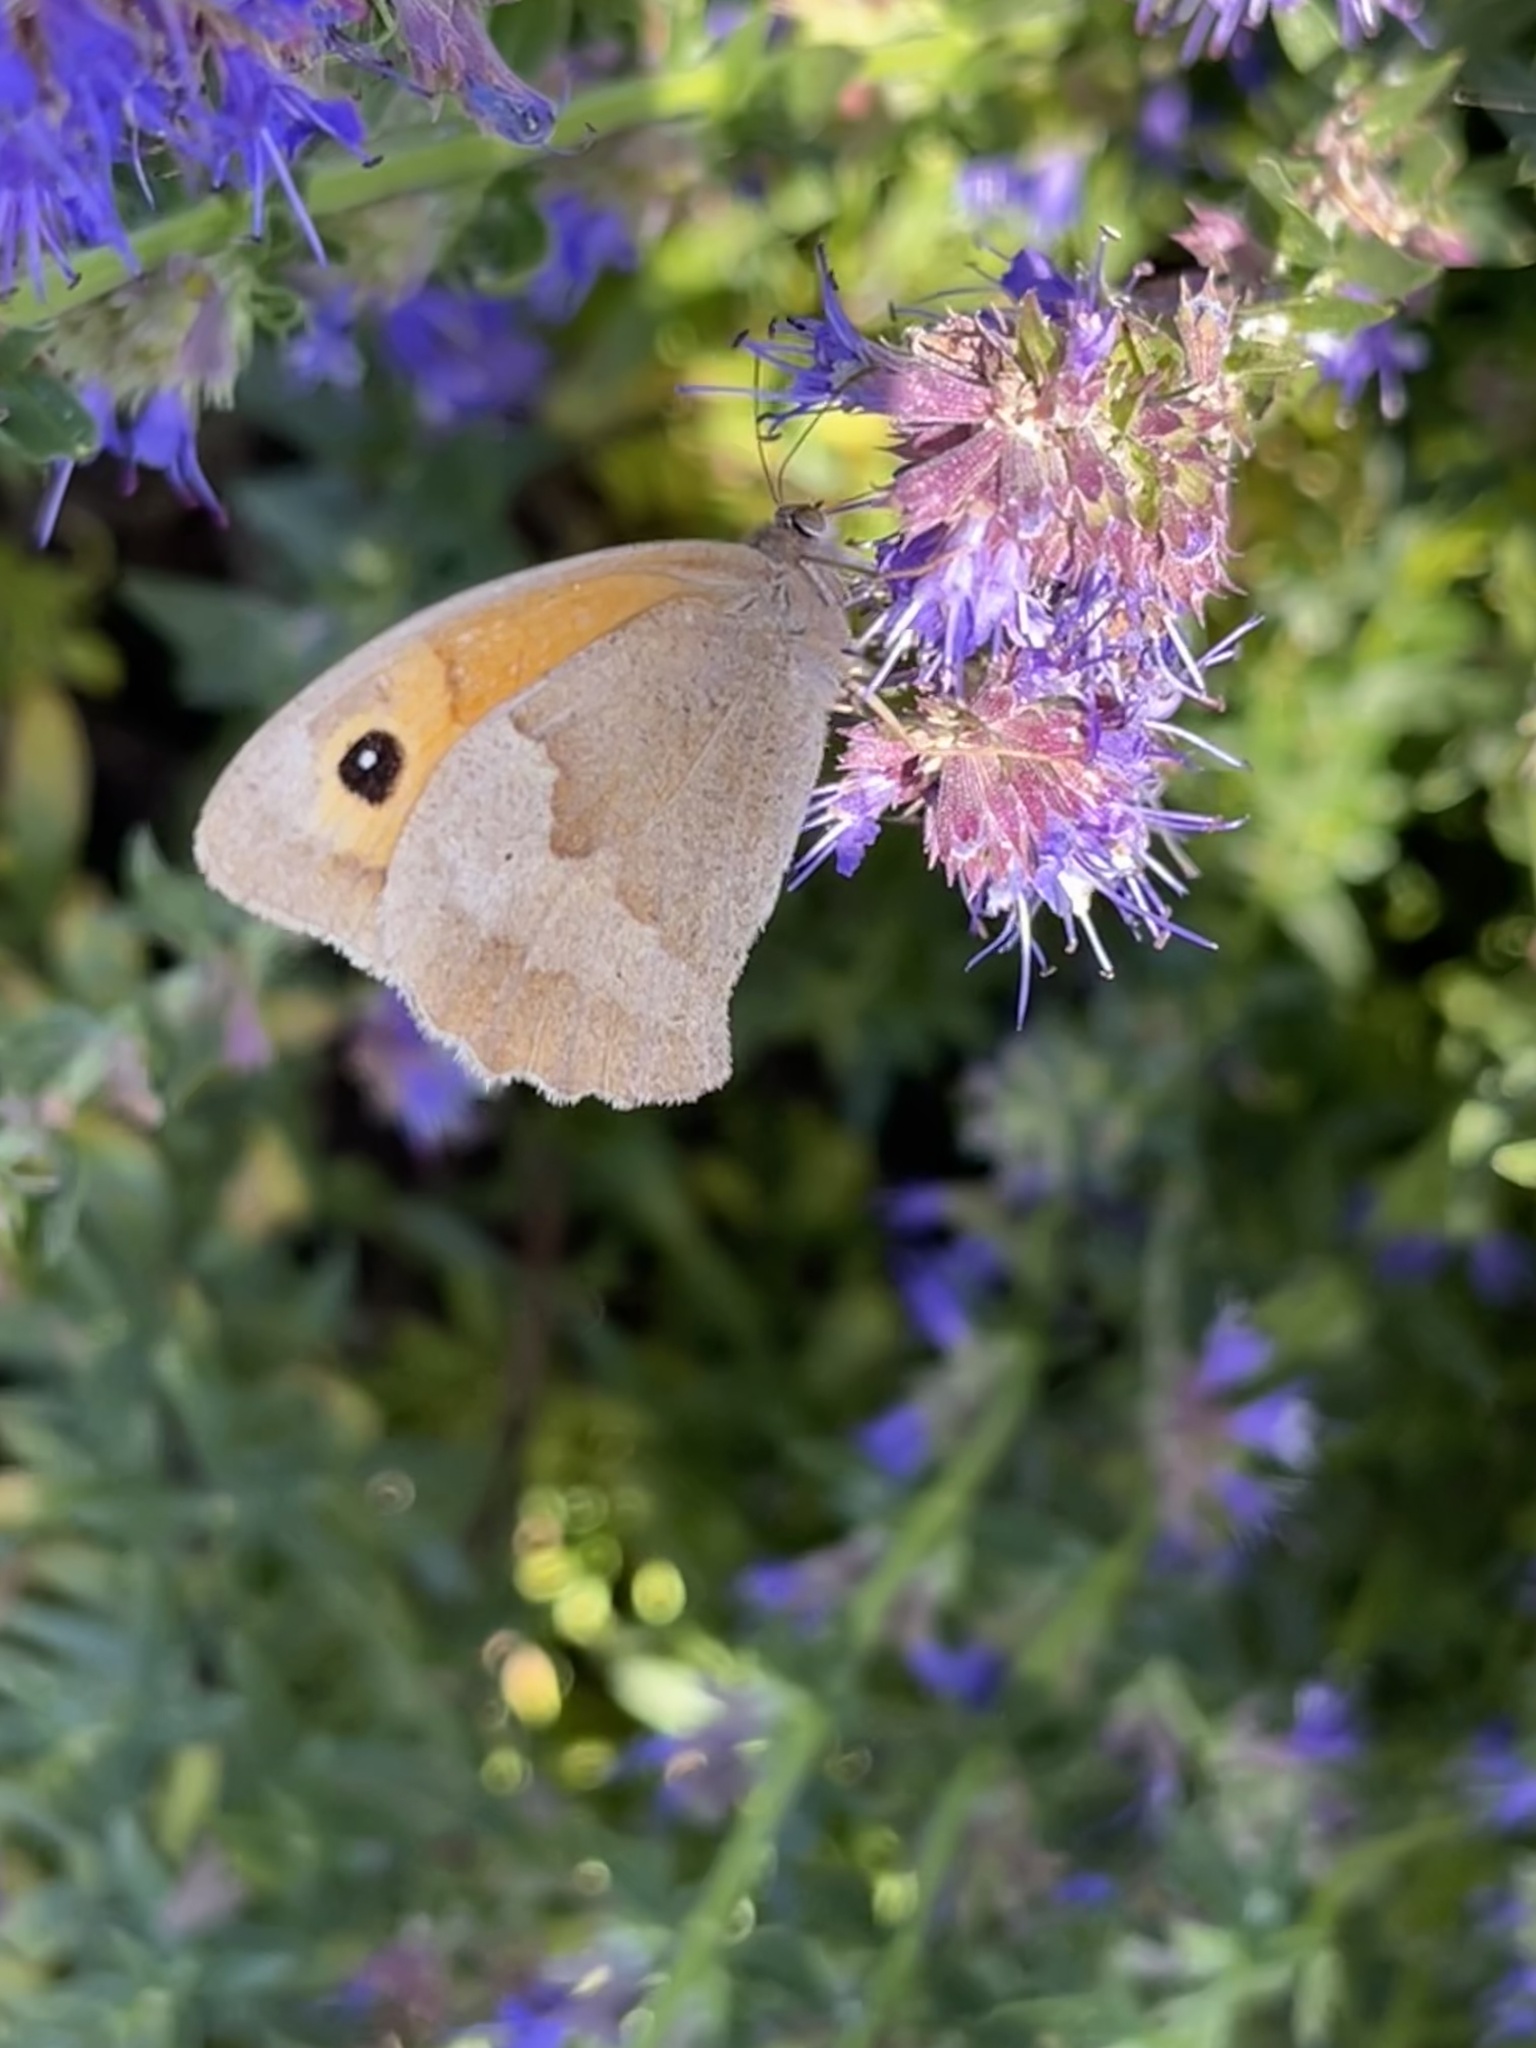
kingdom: Animalia
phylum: Arthropoda
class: Insecta
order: Lepidoptera
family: Nymphalidae
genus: Maniola
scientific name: Maniola jurtina
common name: Meadow brown
